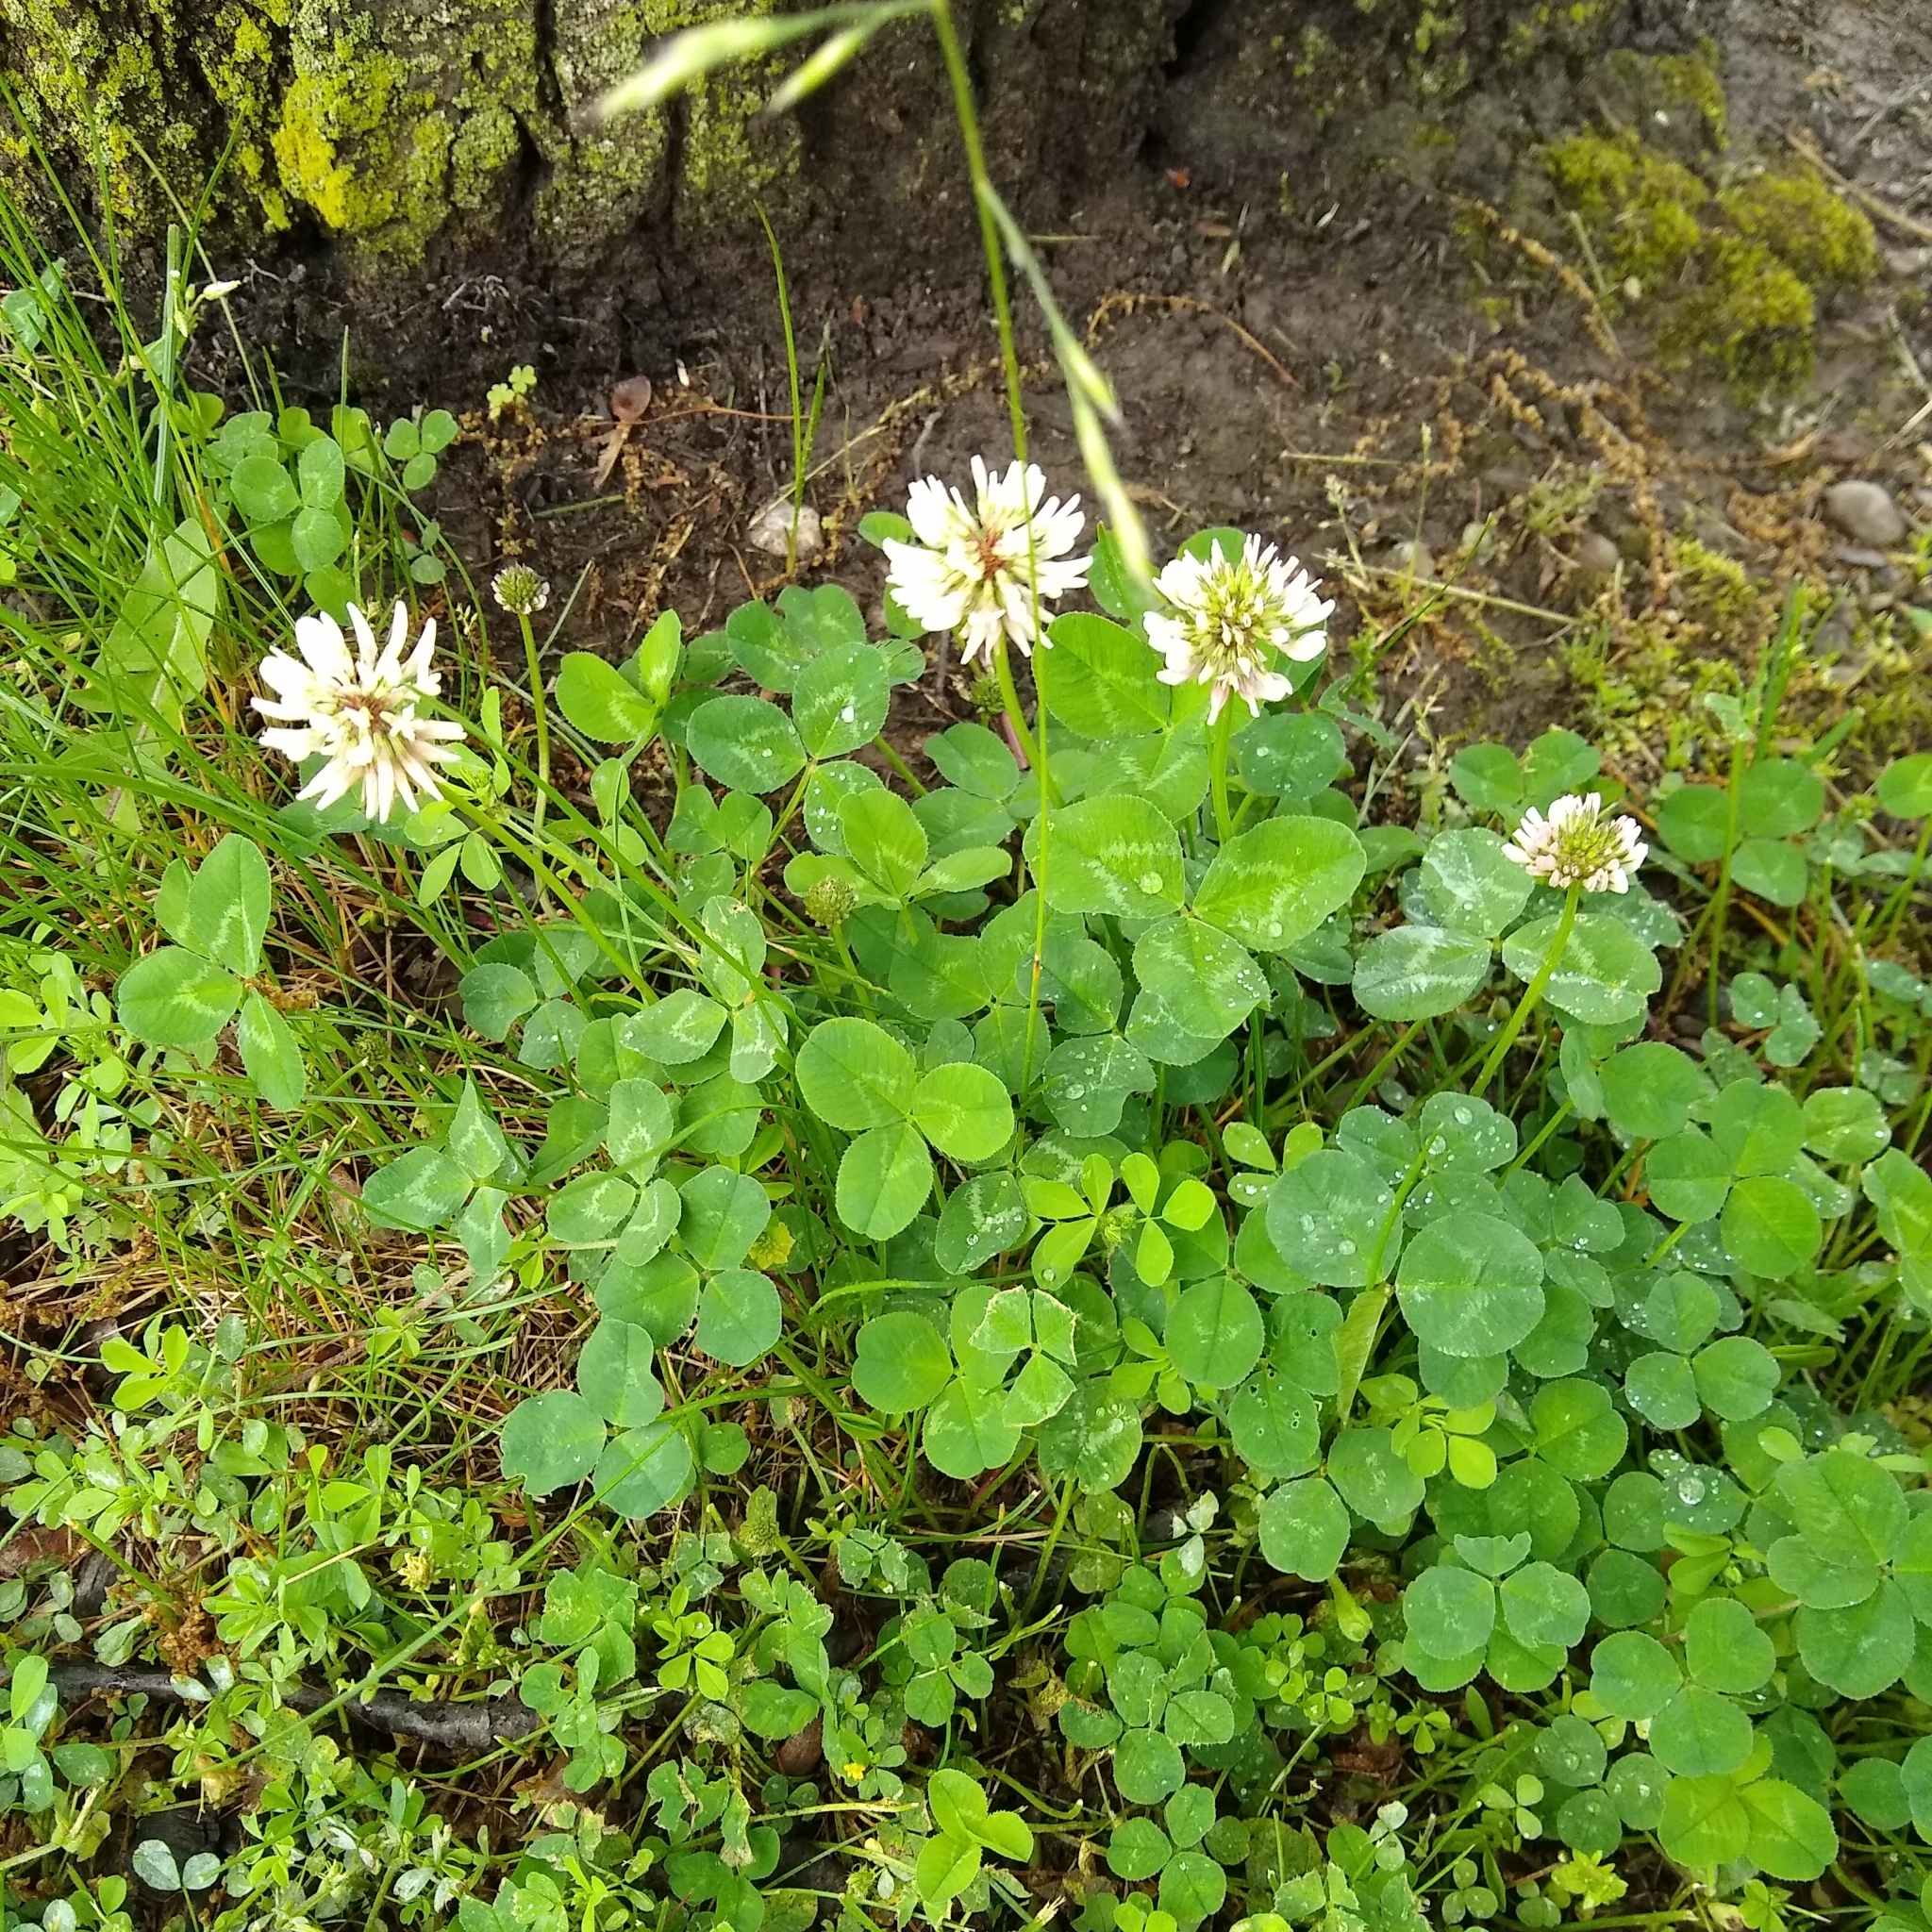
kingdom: Plantae
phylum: Tracheophyta
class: Magnoliopsida
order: Fabales
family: Fabaceae
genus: Trifolium
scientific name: Trifolium repens
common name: White clover
